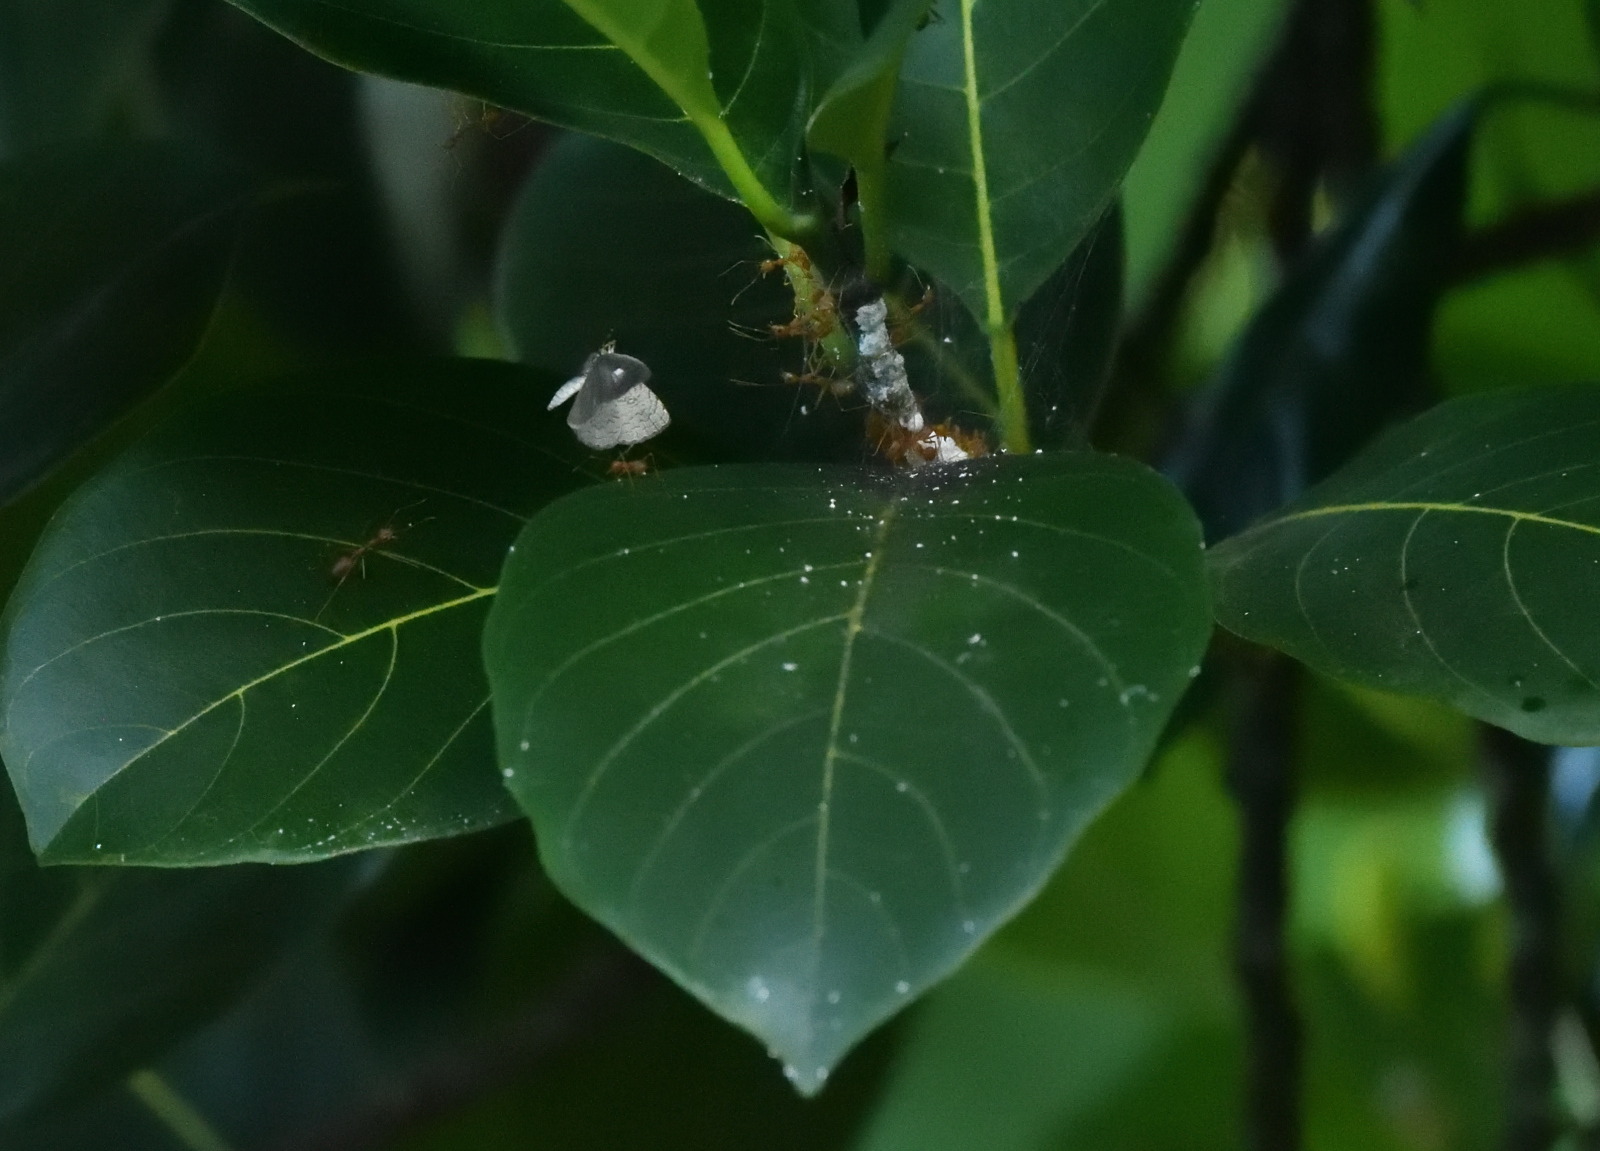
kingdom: Animalia
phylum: Arthropoda
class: Insecta
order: Lepidoptera
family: Lycaenidae
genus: Spalgis
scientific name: Spalgis epius
